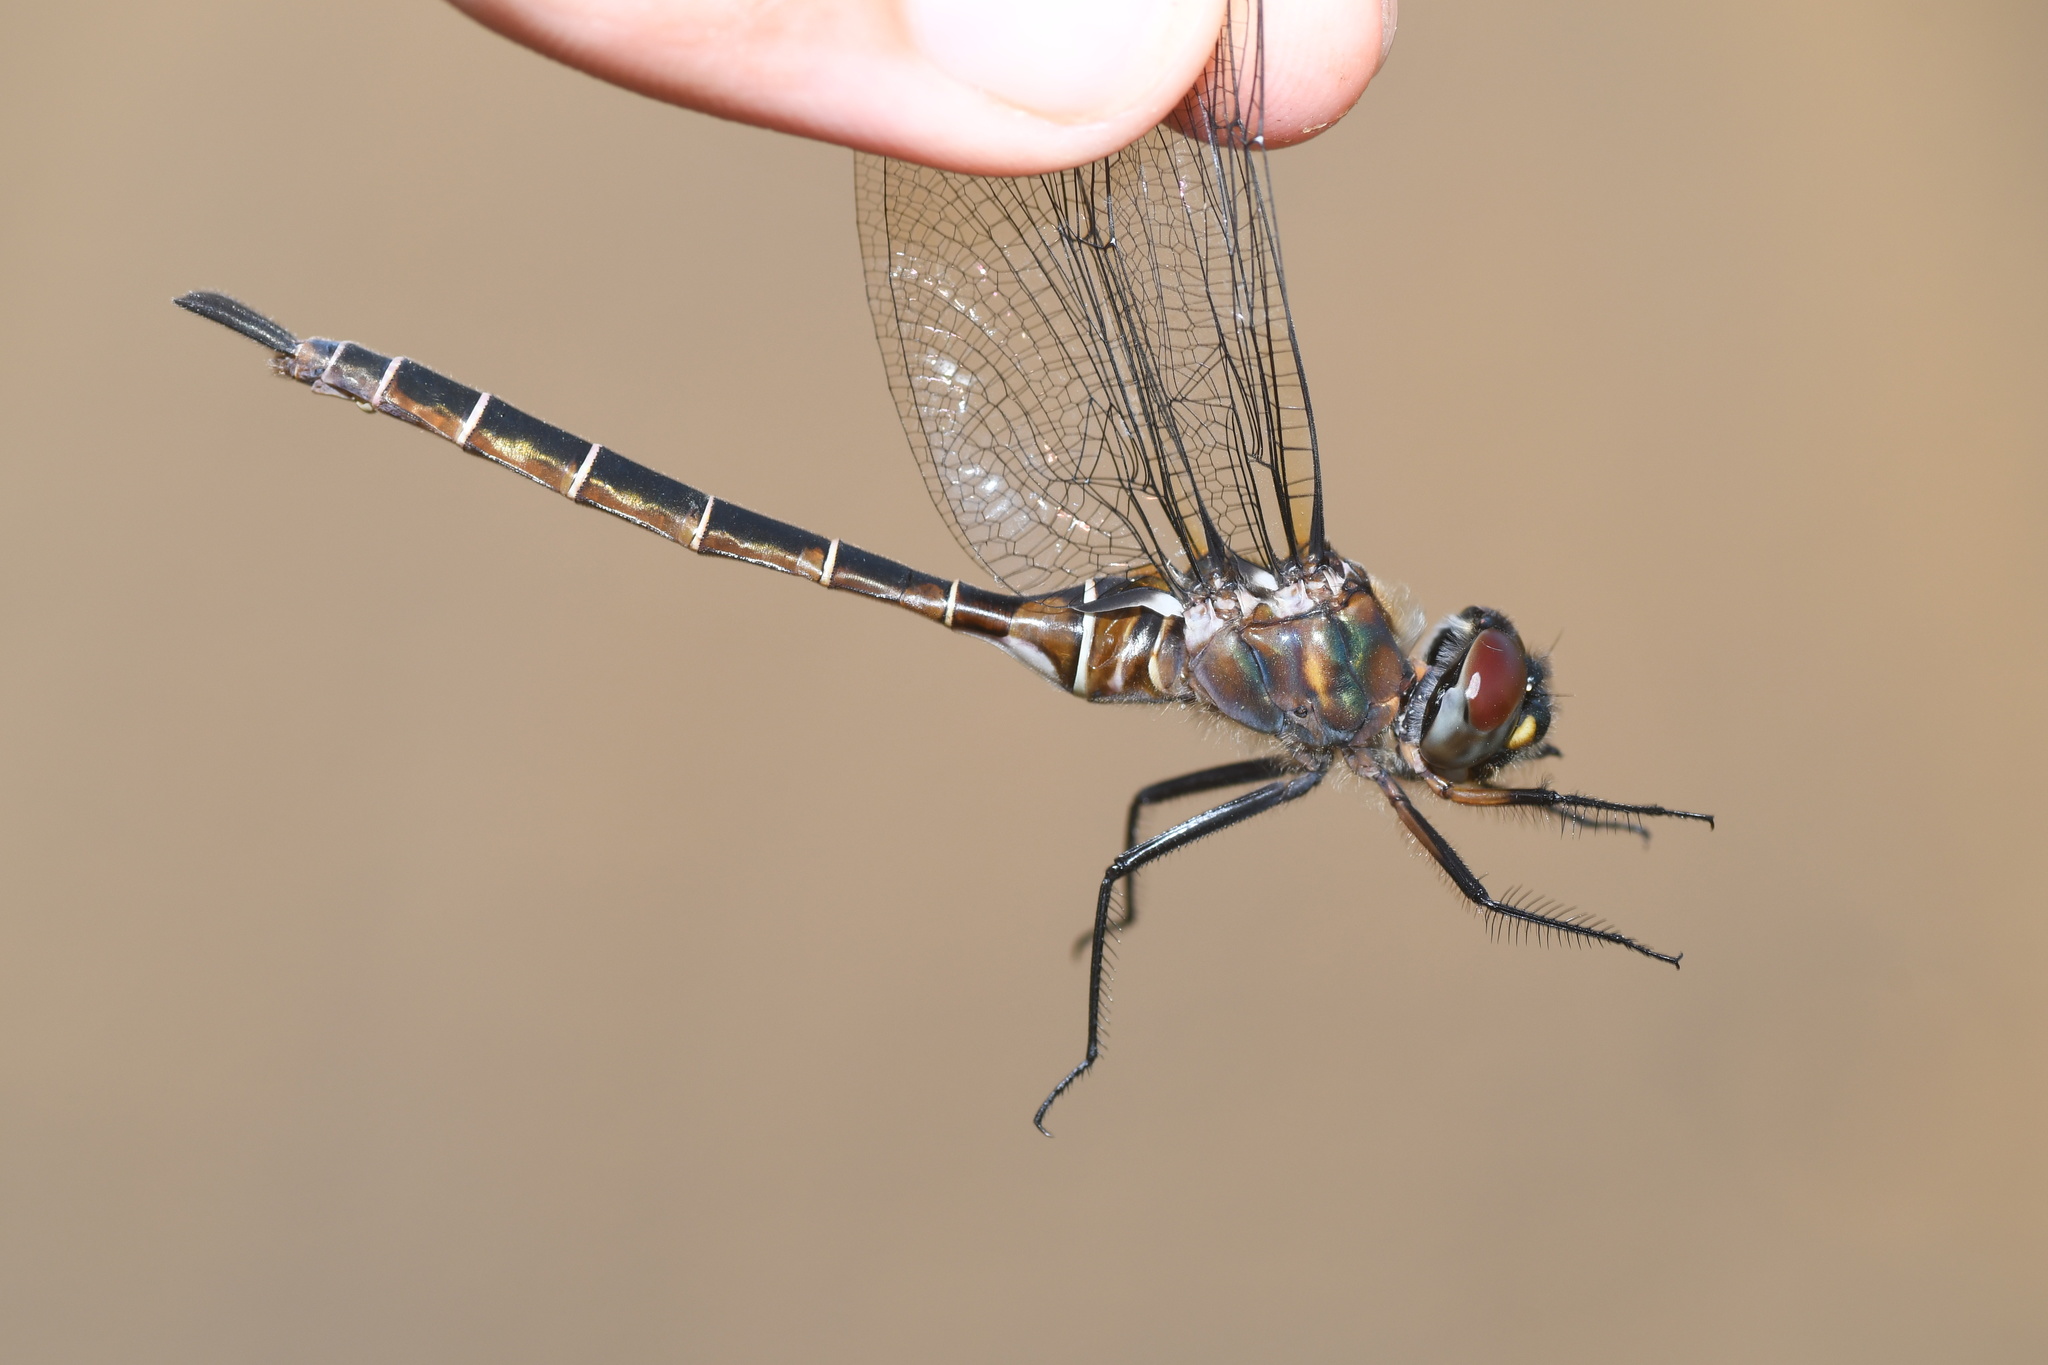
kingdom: Animalia
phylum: Arthropoda
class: Insecta
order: Odonata
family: Corduliidae
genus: Somatochlora
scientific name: Somatochlora cingulata
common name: Lake emerald
